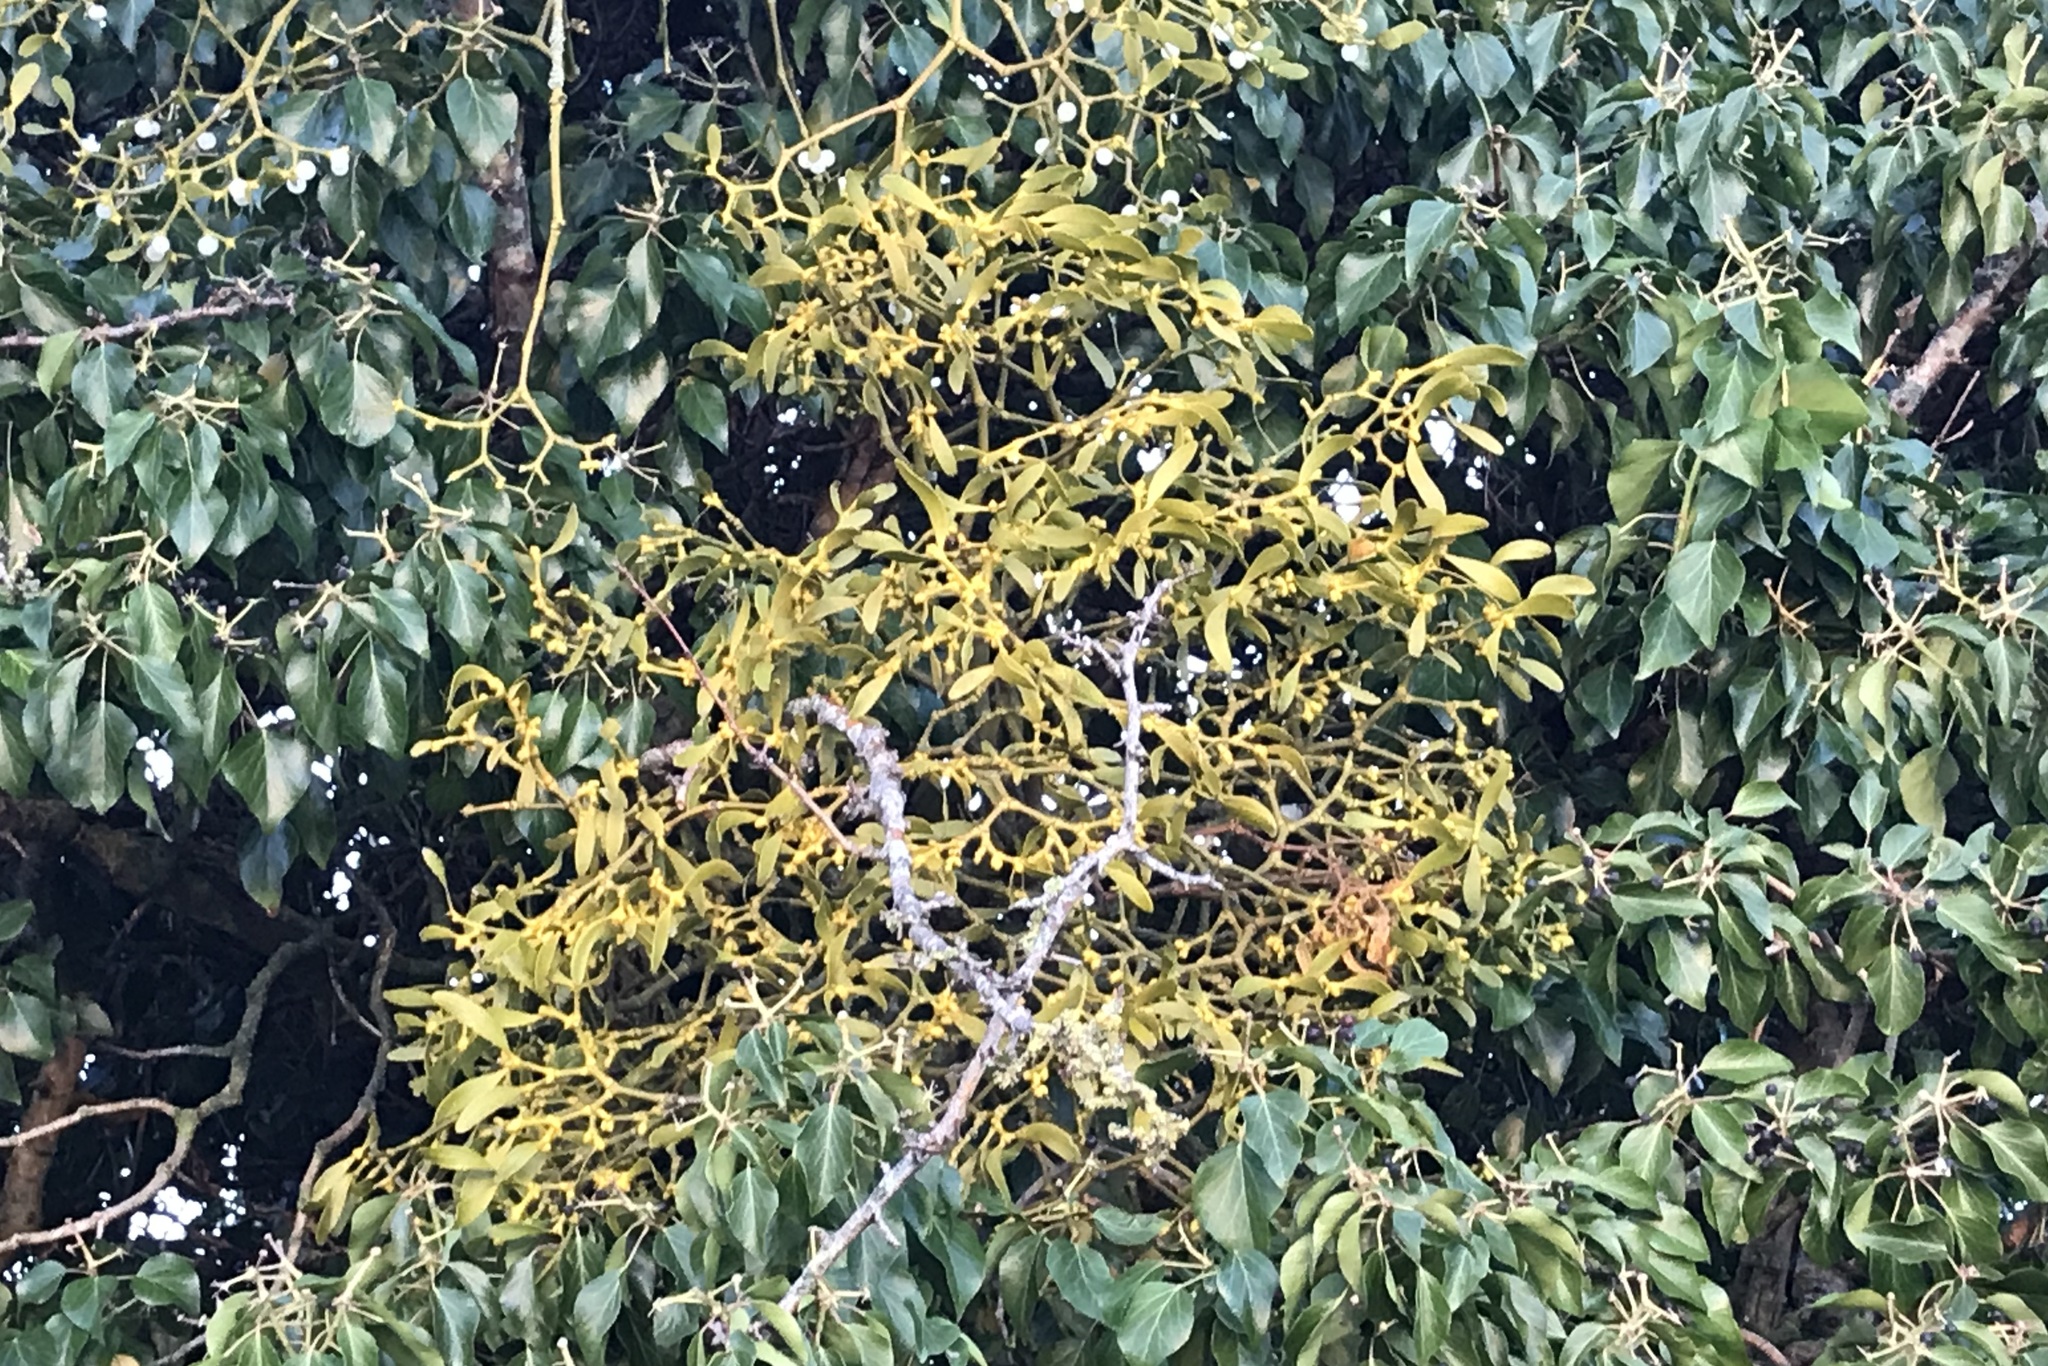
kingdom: Plantae
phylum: Tracheophyta
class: Magnoliopsida
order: Santalales
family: Viscaceae
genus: Viscum
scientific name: Viscum album
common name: Mistletoe
